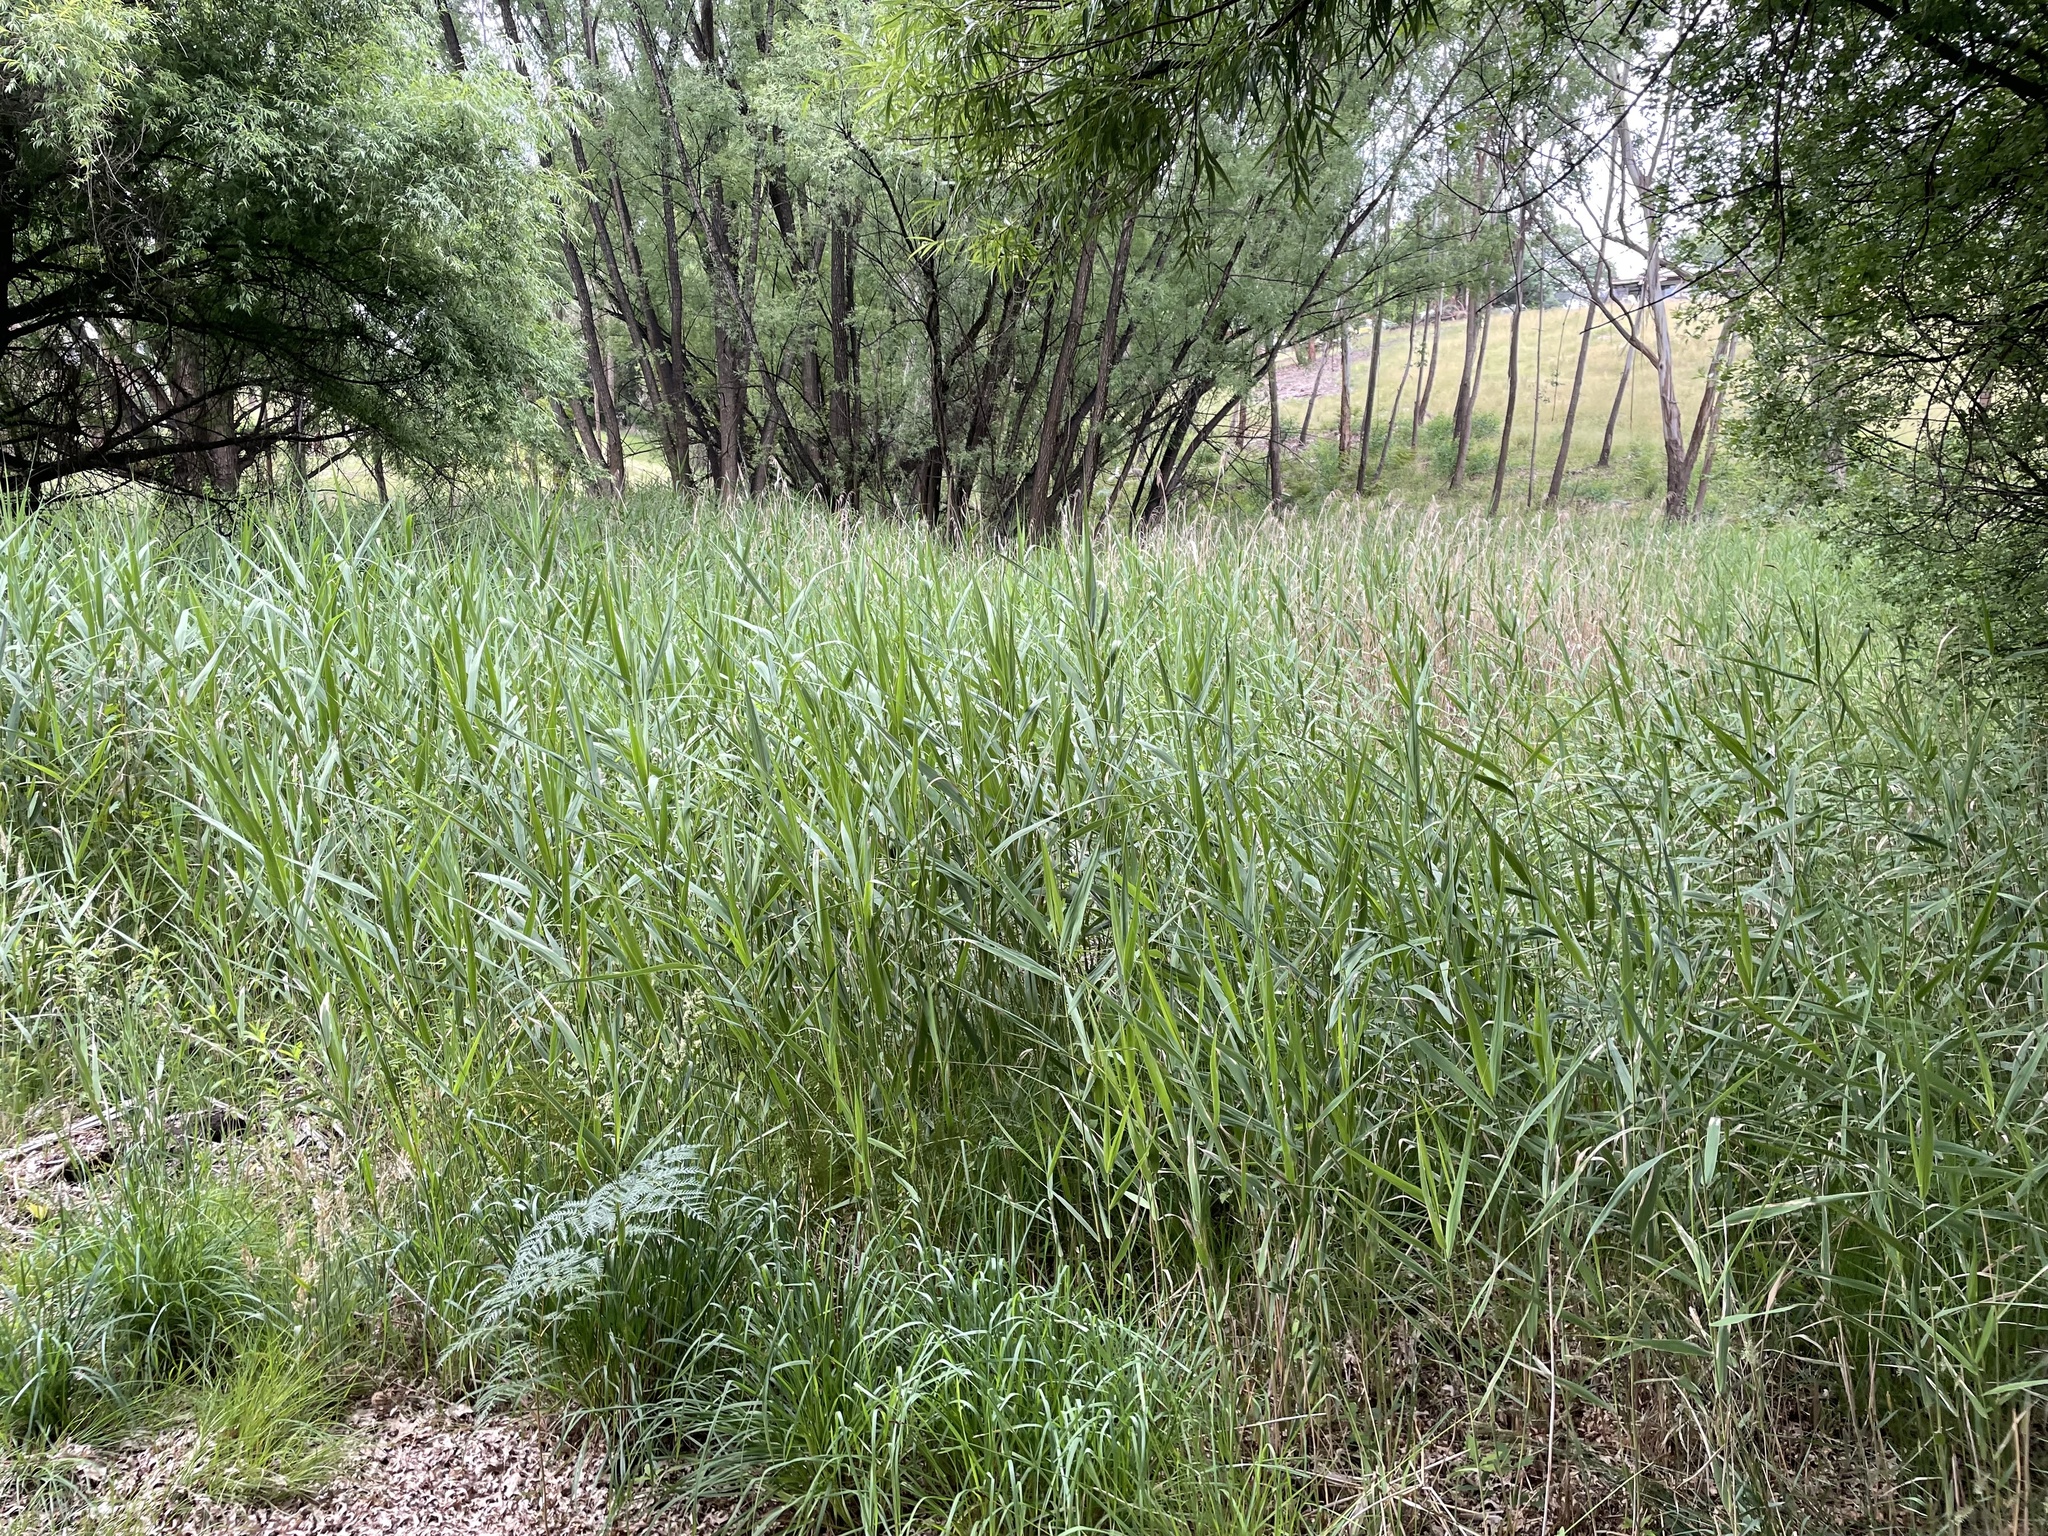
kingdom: Plantae
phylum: Tracheophyta
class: Liliopsida
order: Poales
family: Poaceae
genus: Phragmites
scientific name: Phragmites australis
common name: Common reed
